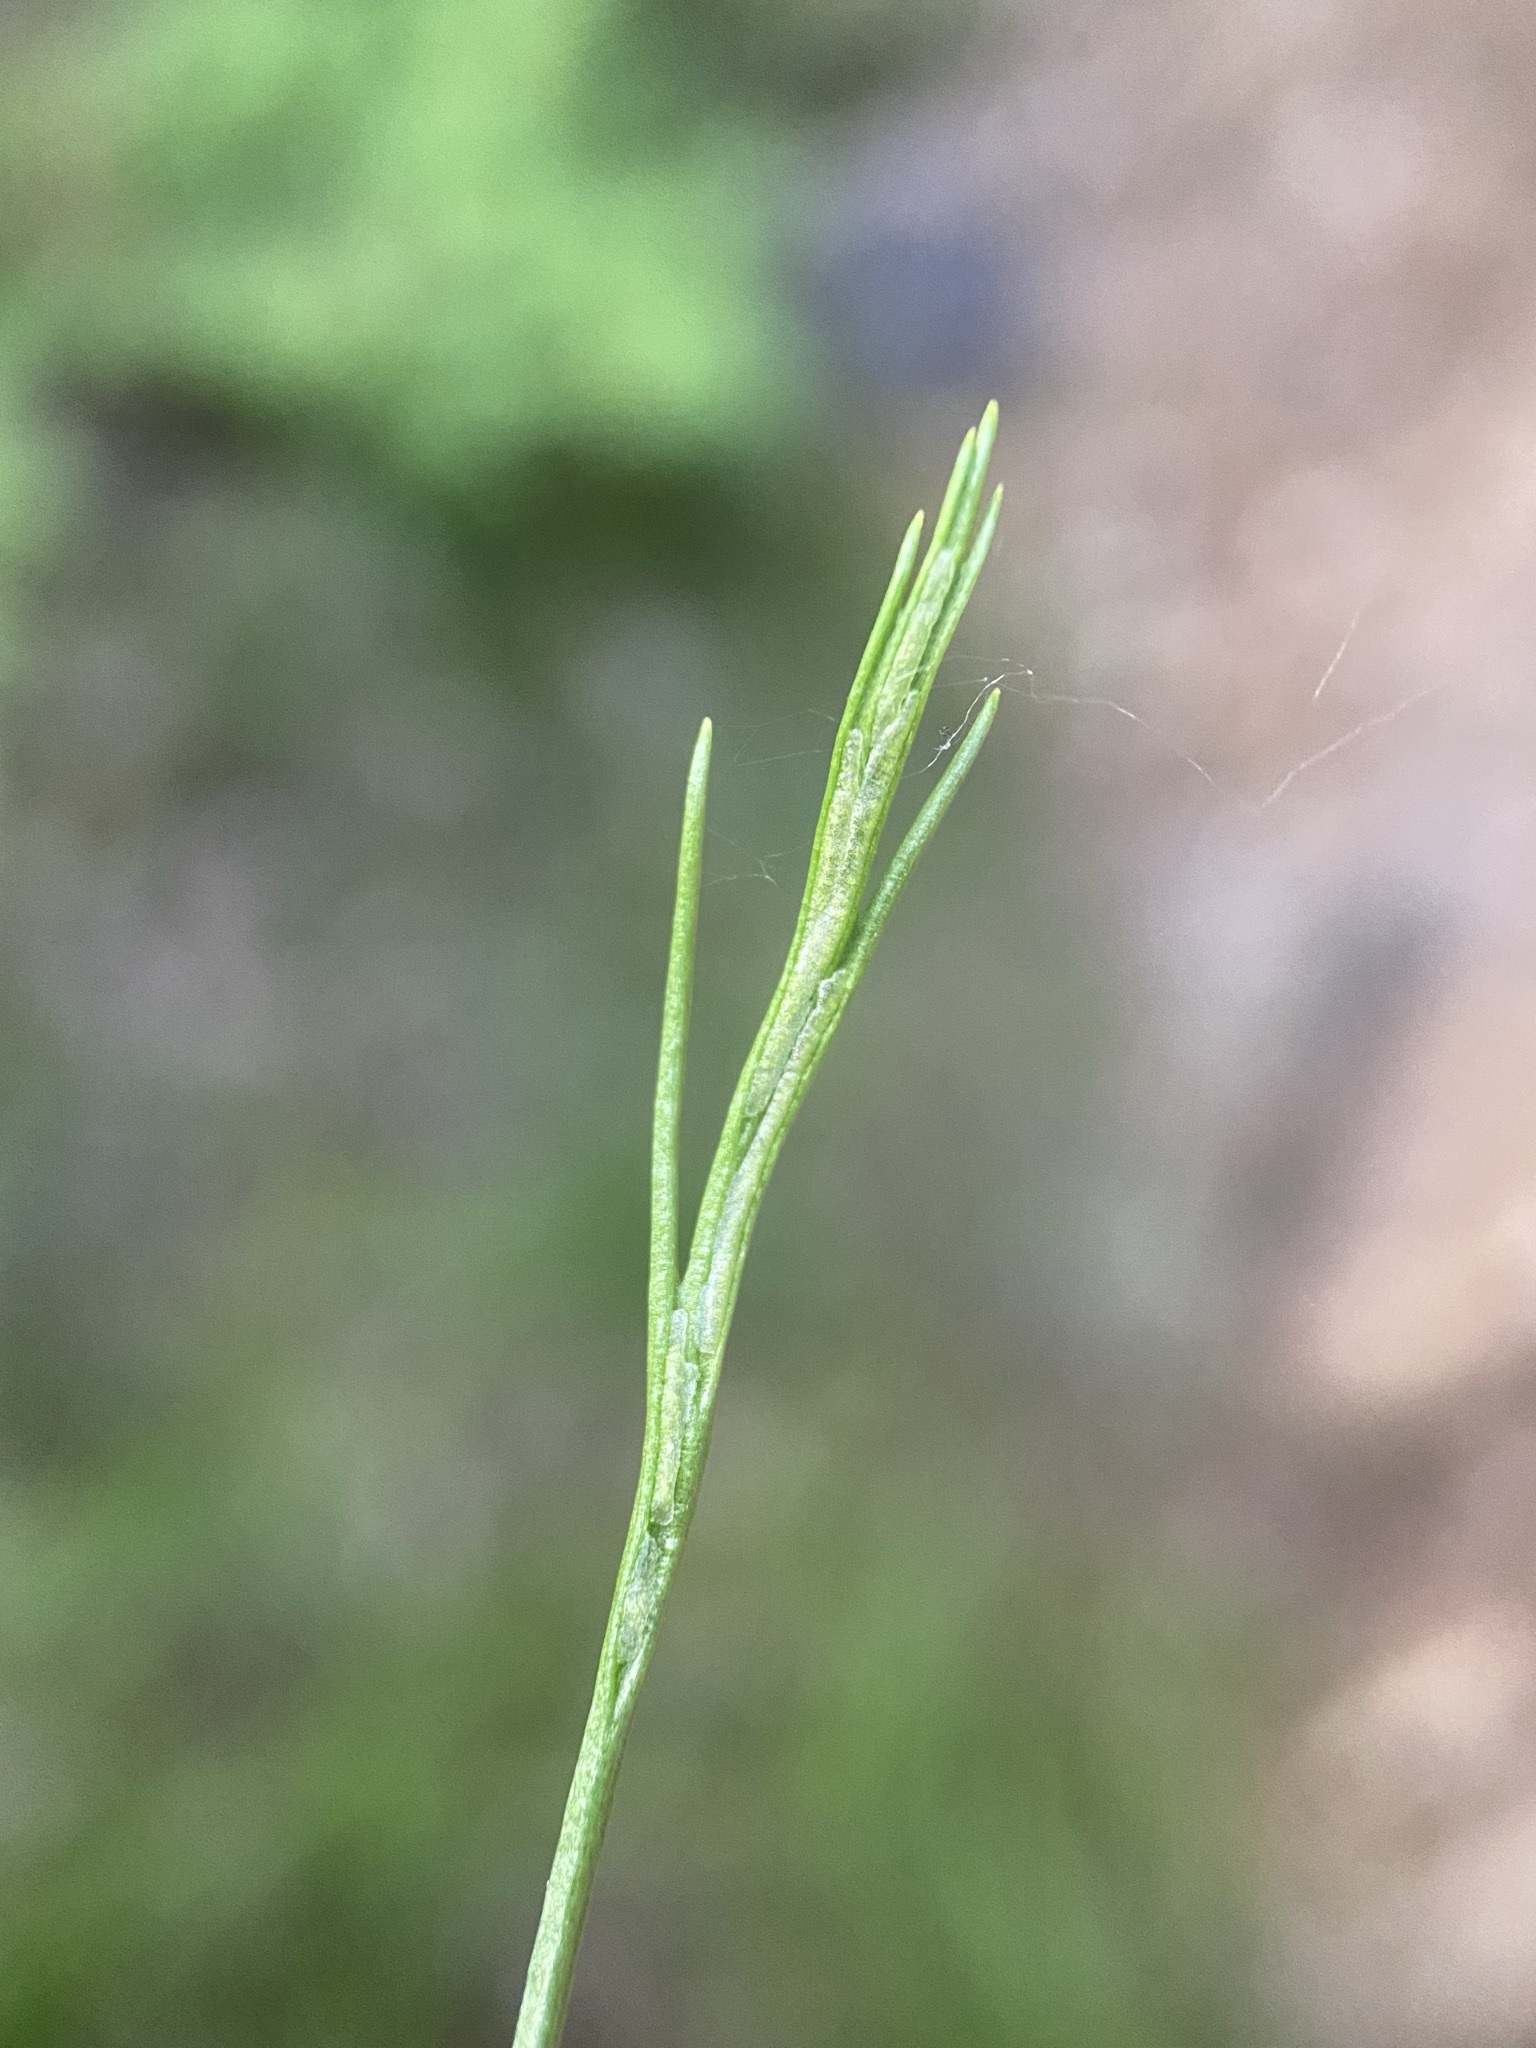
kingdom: Plantae
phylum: Tracheophyta
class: Polypodiopsida
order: Polypodiales
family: Aspleniaceae
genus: Asplenium
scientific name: Asplenium septentrionale
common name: Forked spleenwort
